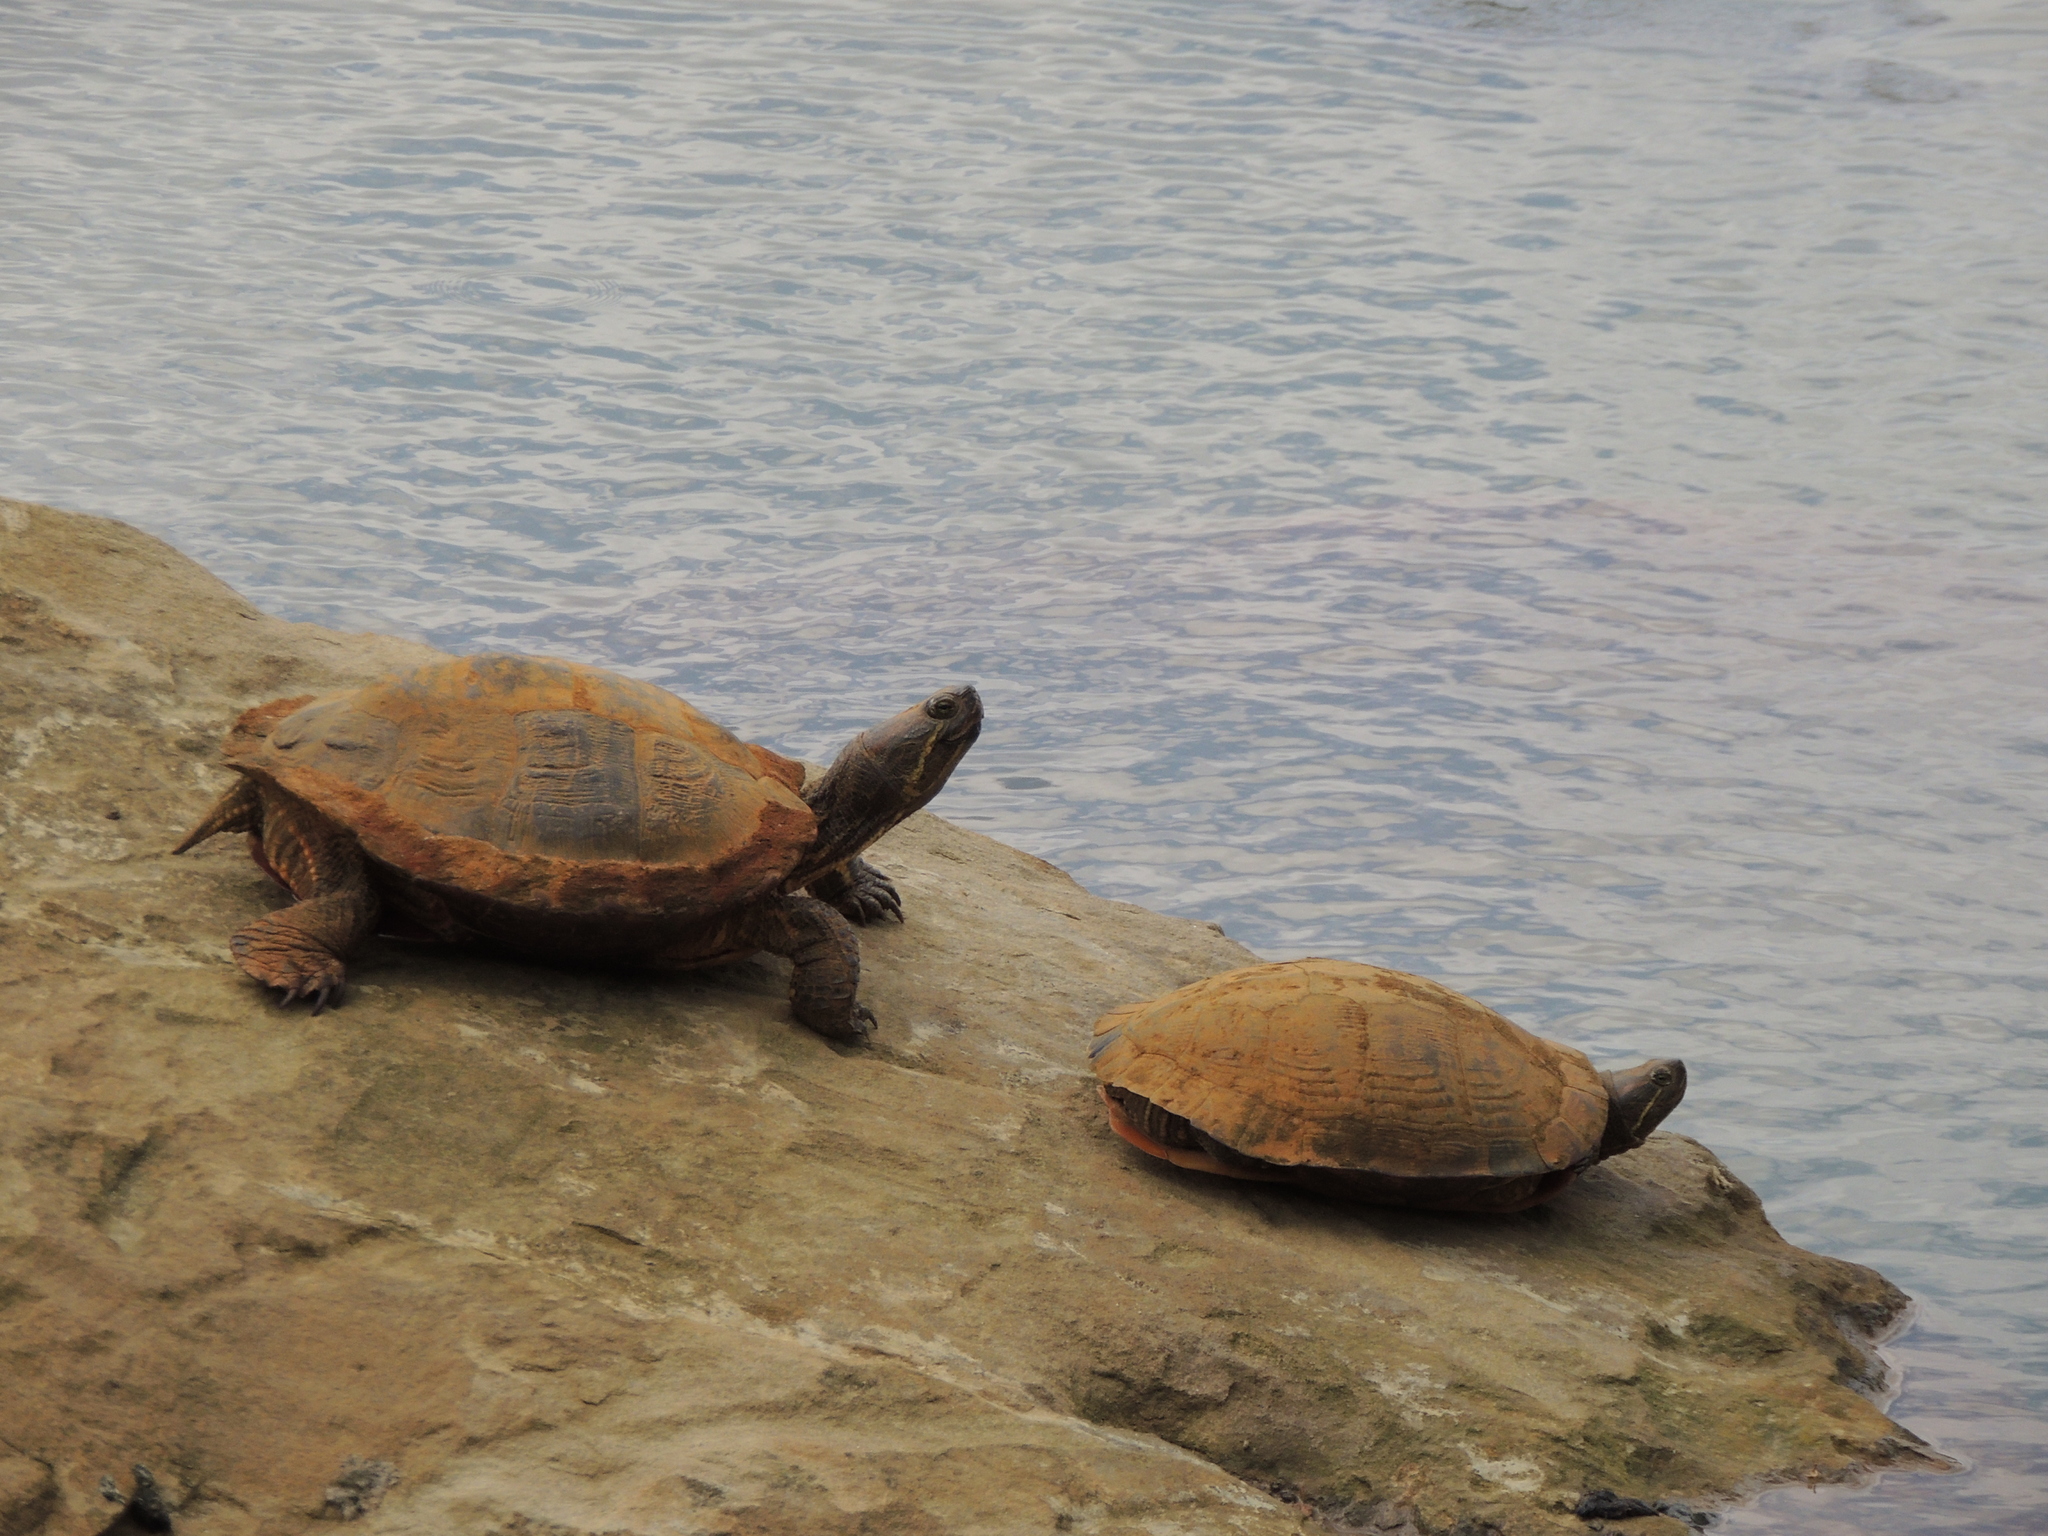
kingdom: Animalia
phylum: Chordata
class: Testudines
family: Emydidae
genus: Trachemys
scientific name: Trachemys scripta
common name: Slider
